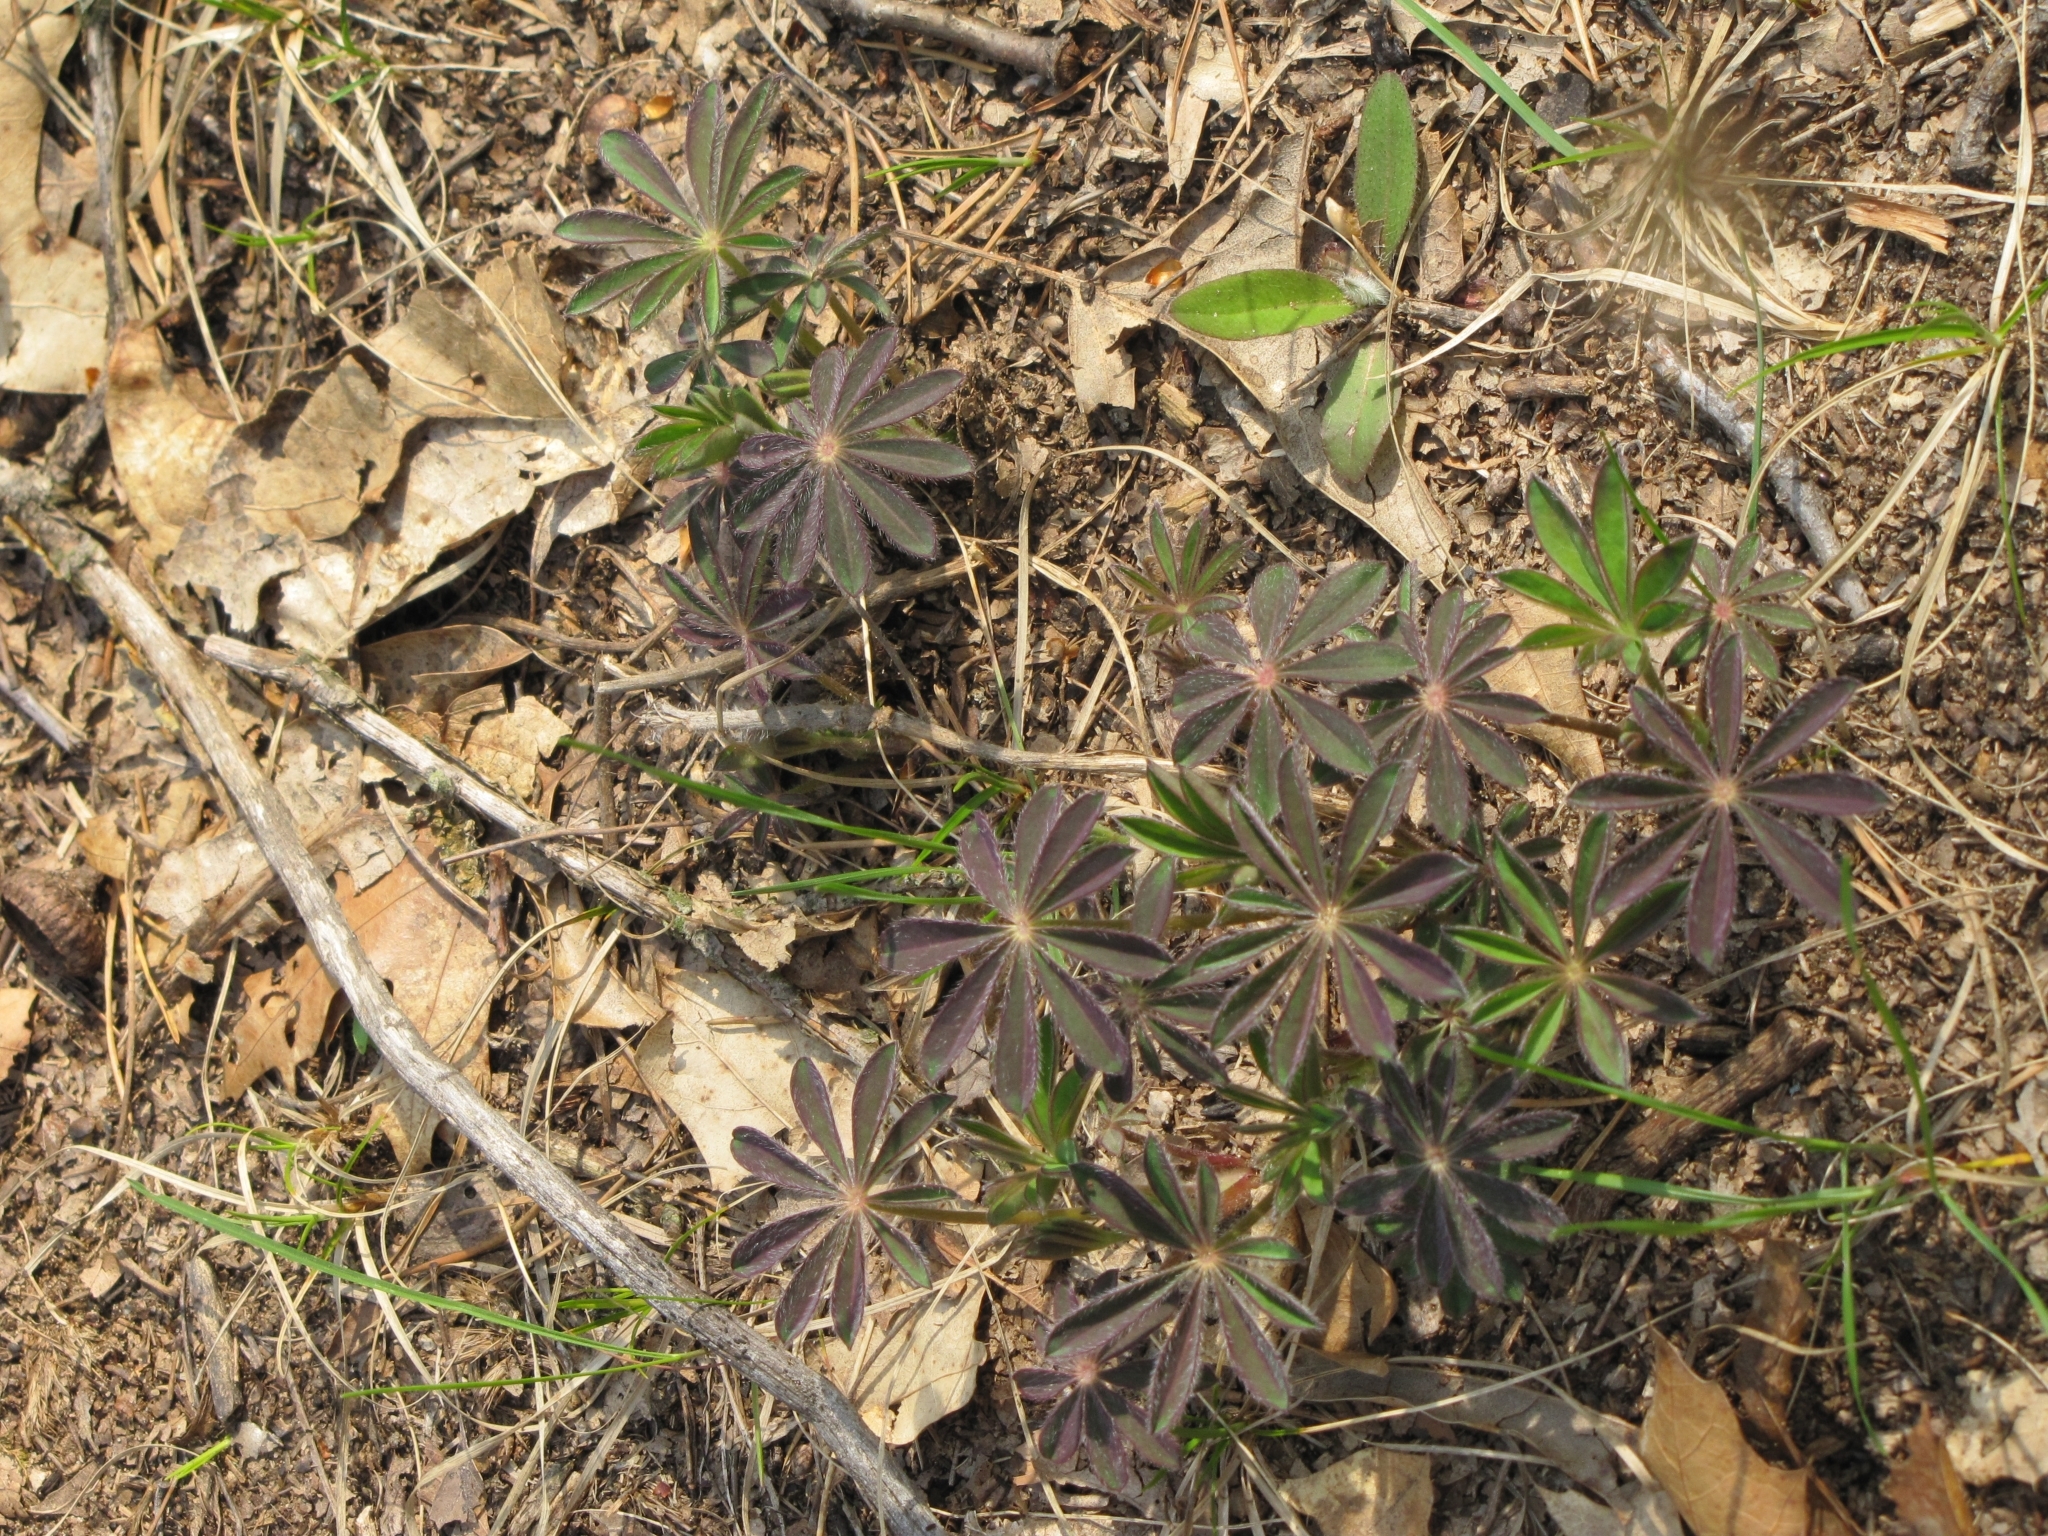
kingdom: Plantae
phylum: Tracheophyta
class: Magnoliopsida
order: Fabales
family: Fabaceae
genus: Lupinus
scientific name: Lupinus perennis
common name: Sundial lupine
